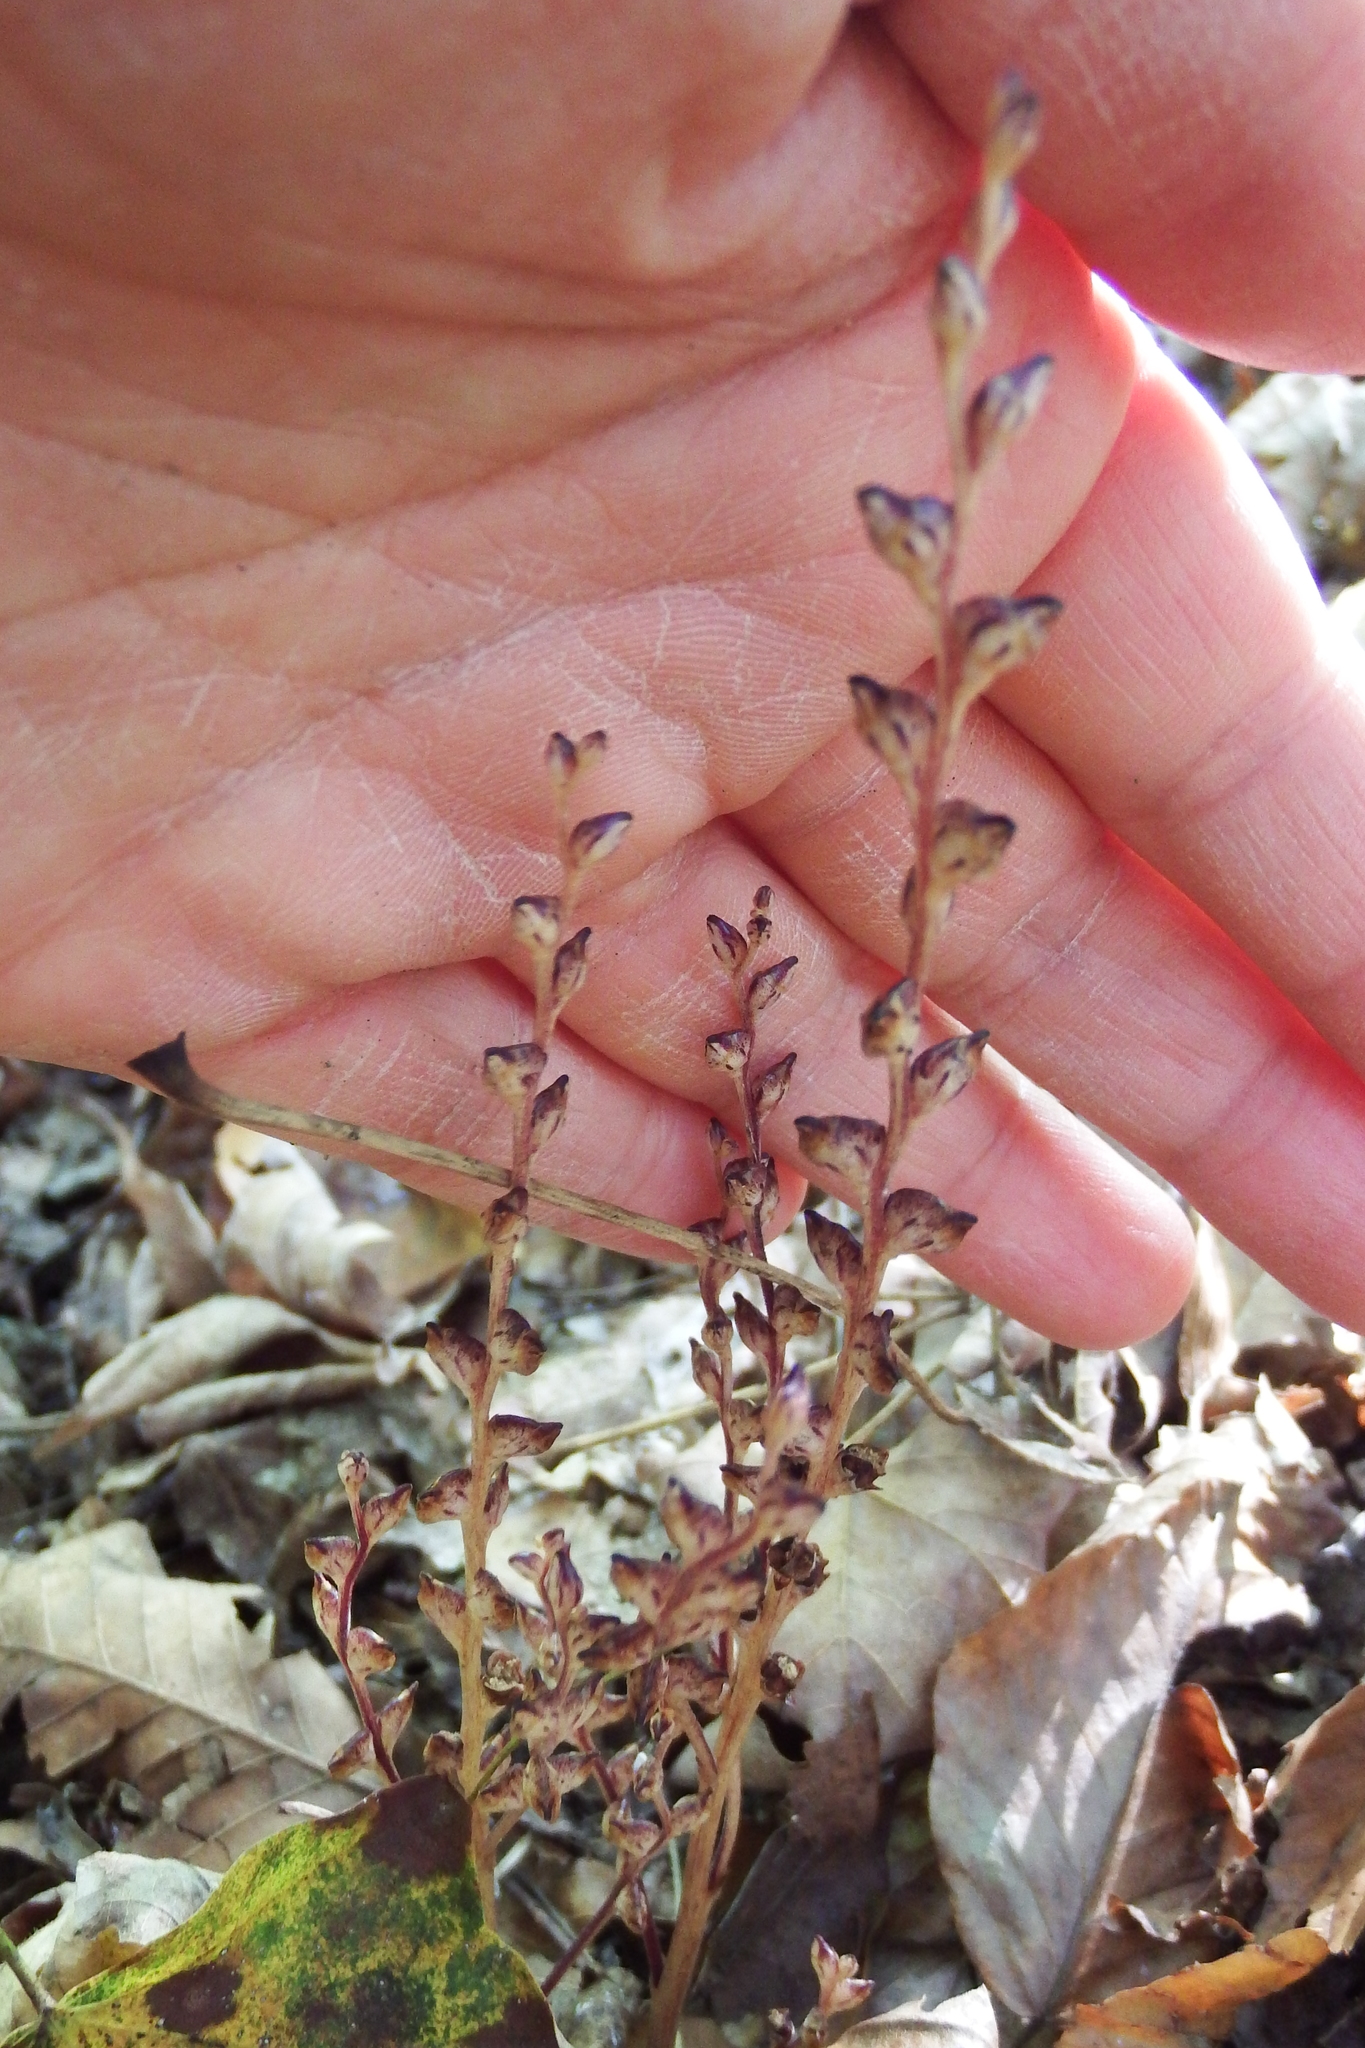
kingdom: Plantae
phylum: Tracheophyta
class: Magnoliopsida
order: Lamiales
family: Orobanchaceae
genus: Epifagus
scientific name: Epifagus virginiana
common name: Beechdrops
